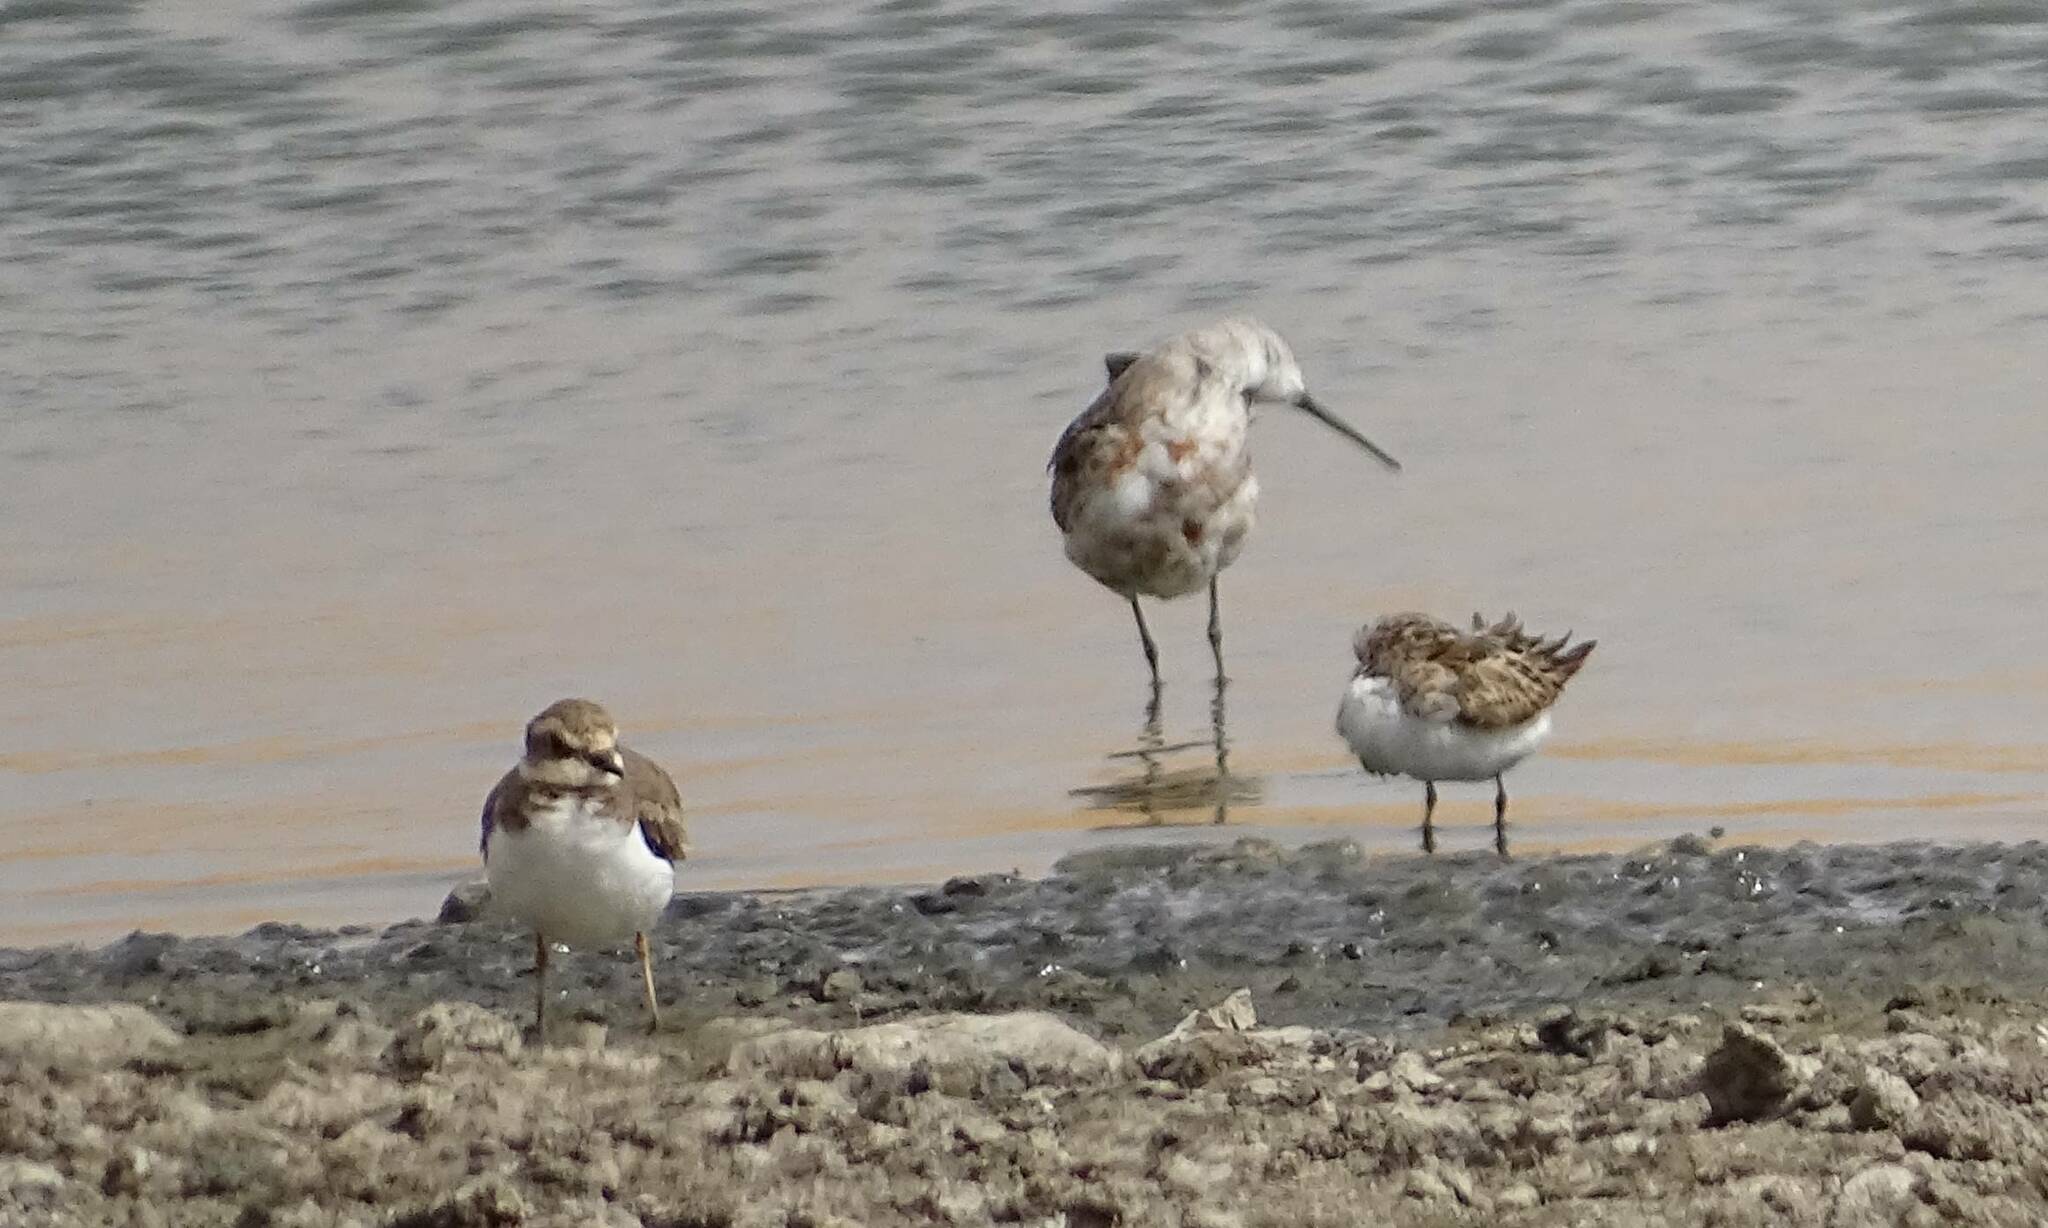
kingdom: Animalia
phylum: Chordata
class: Aves
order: Charadriiformes
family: Scolopacidae
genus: Calidris
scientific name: Calidris ferruginea
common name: Curlew sandpiper
